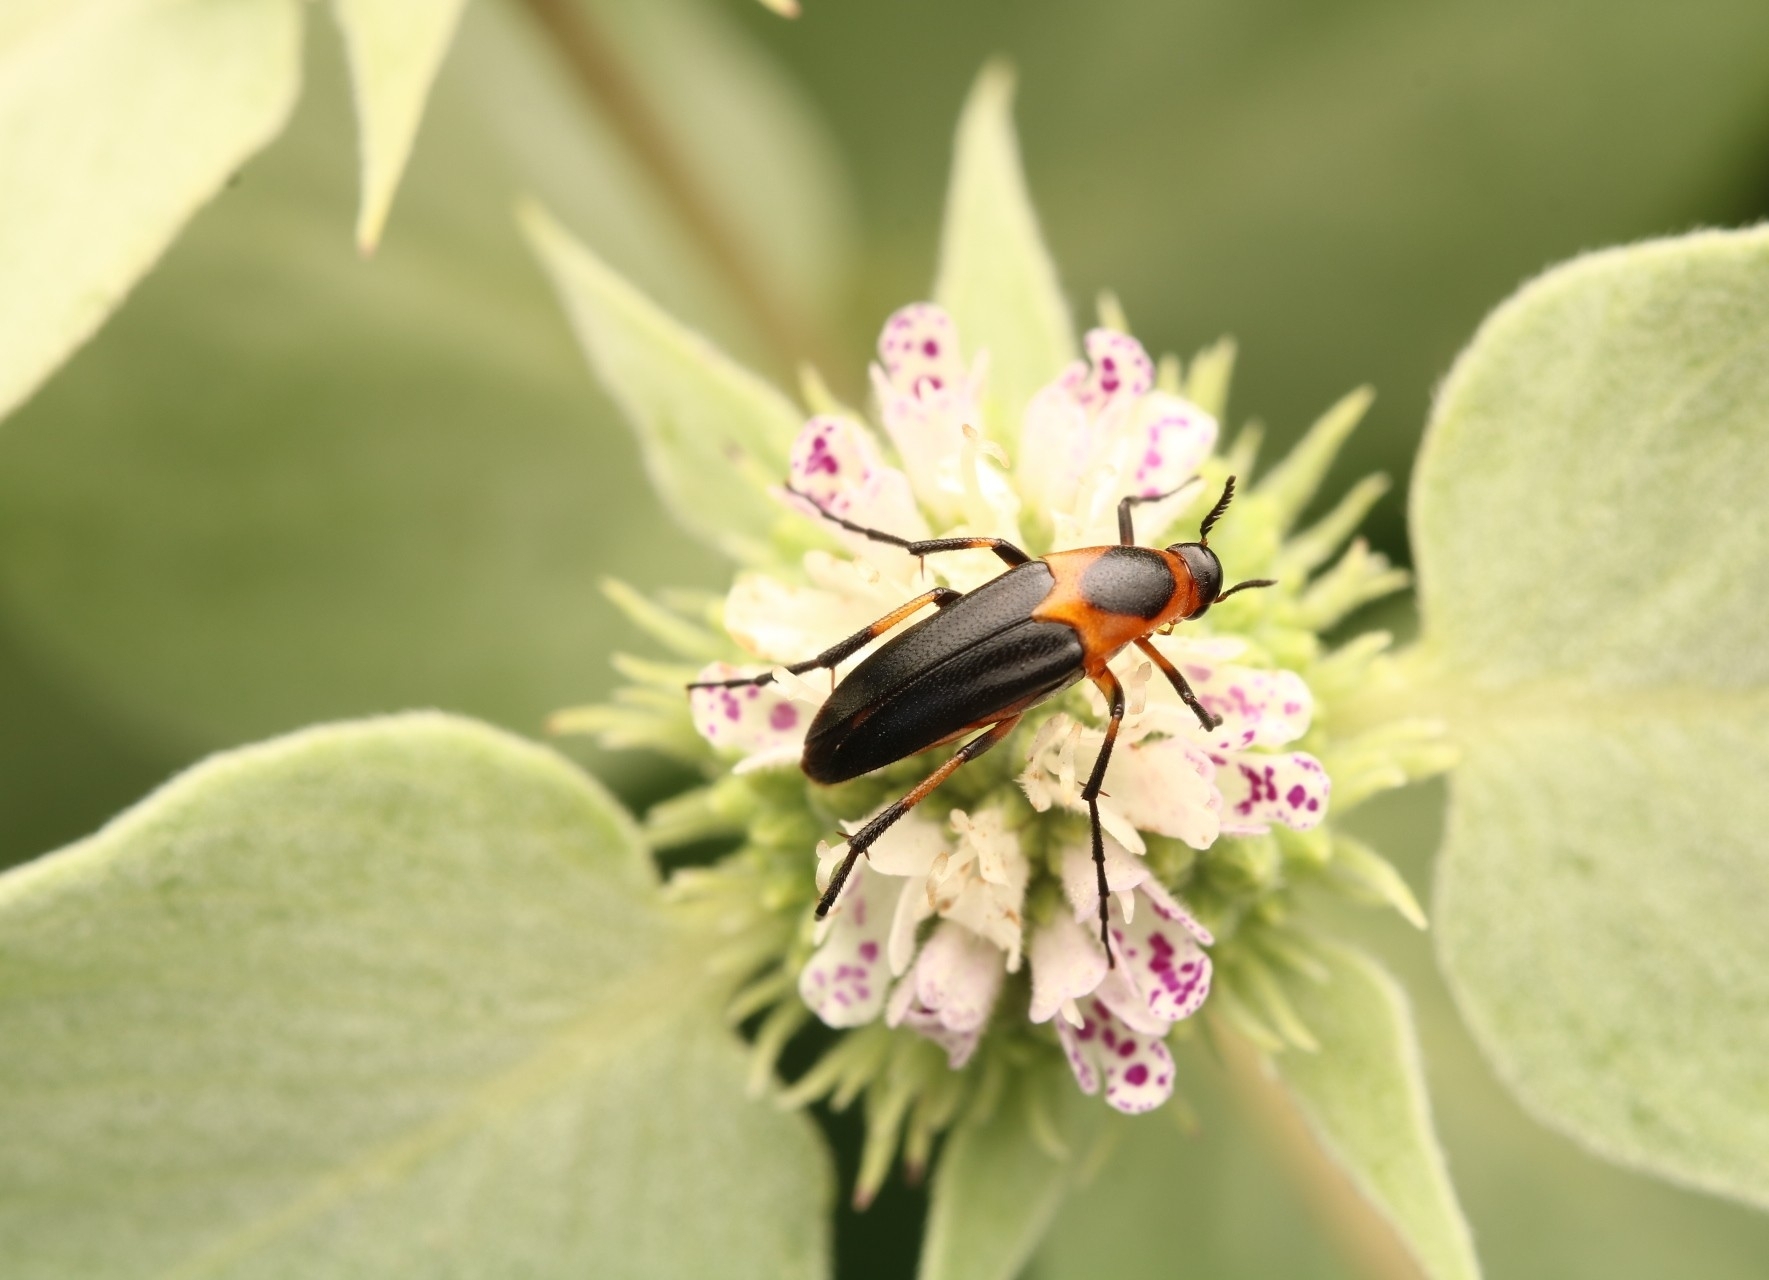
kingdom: Animalia
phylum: Arthropoda
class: Insecta
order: Coleoptera
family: Ripiphoridae
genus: Macrosiagon
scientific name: Macrosiagon limbatum
